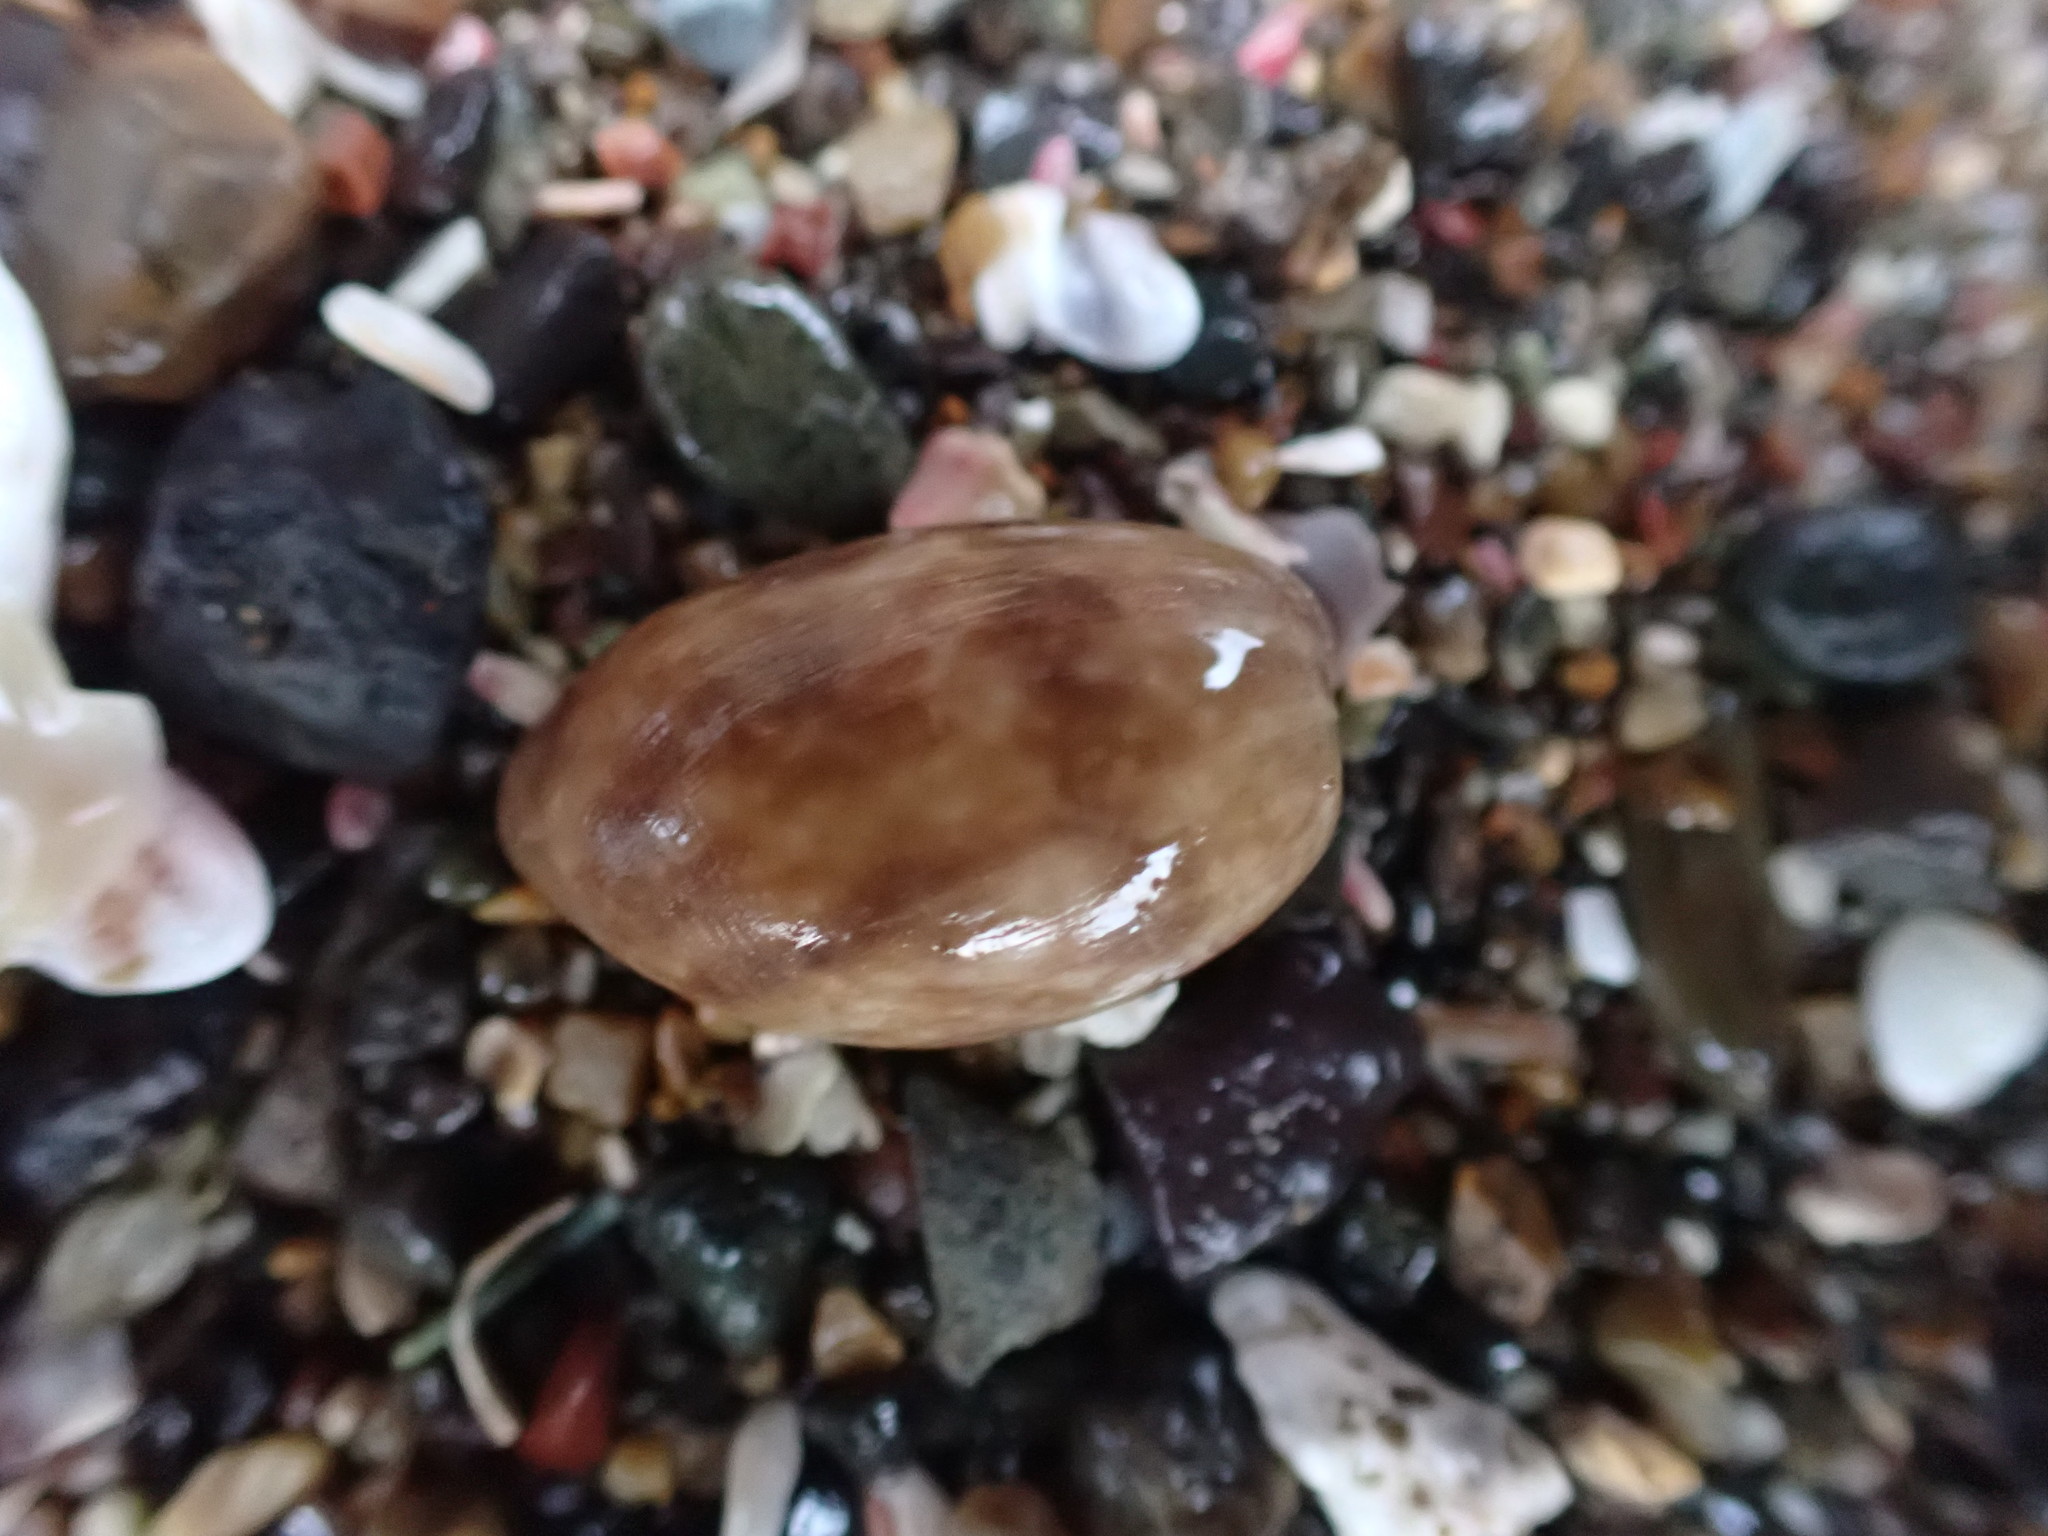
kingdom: Animalia
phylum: Mollusca
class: Gastropoda
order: Cephalaspidea
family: Bullidae
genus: Bulla
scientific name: Bulla quoyii
